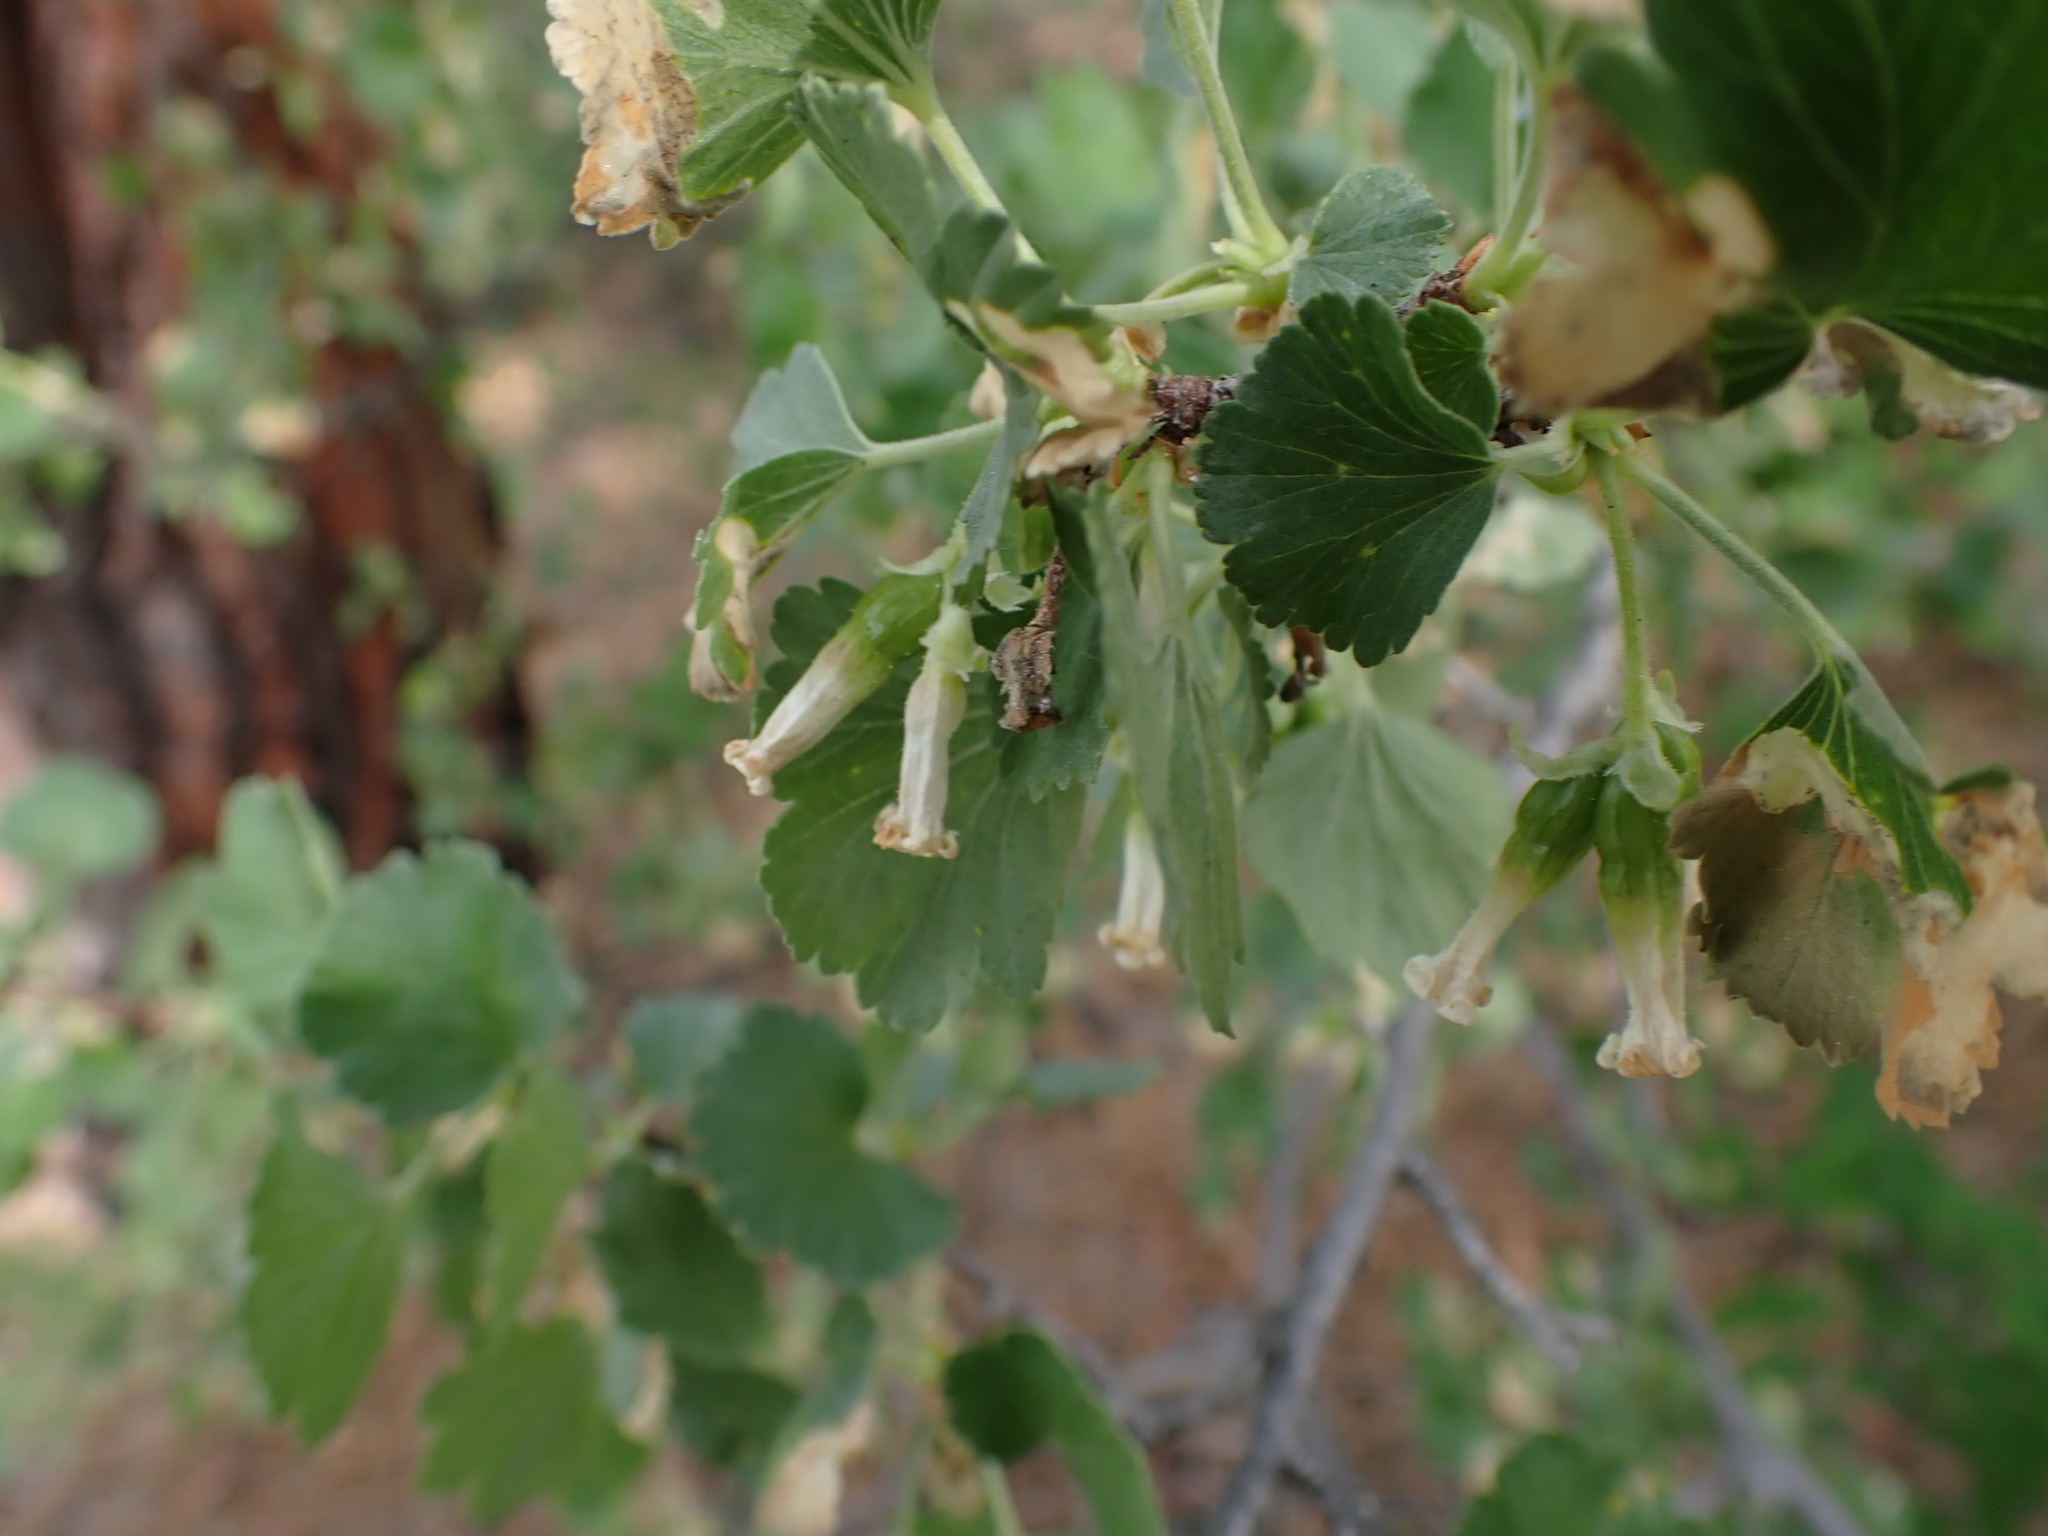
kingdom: Plantae
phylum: Tracheophyta
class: Magnoliopsida
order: Saxifragales
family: Grossulariaceae
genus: Ribes
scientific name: Ribes cereum
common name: Wax currant
